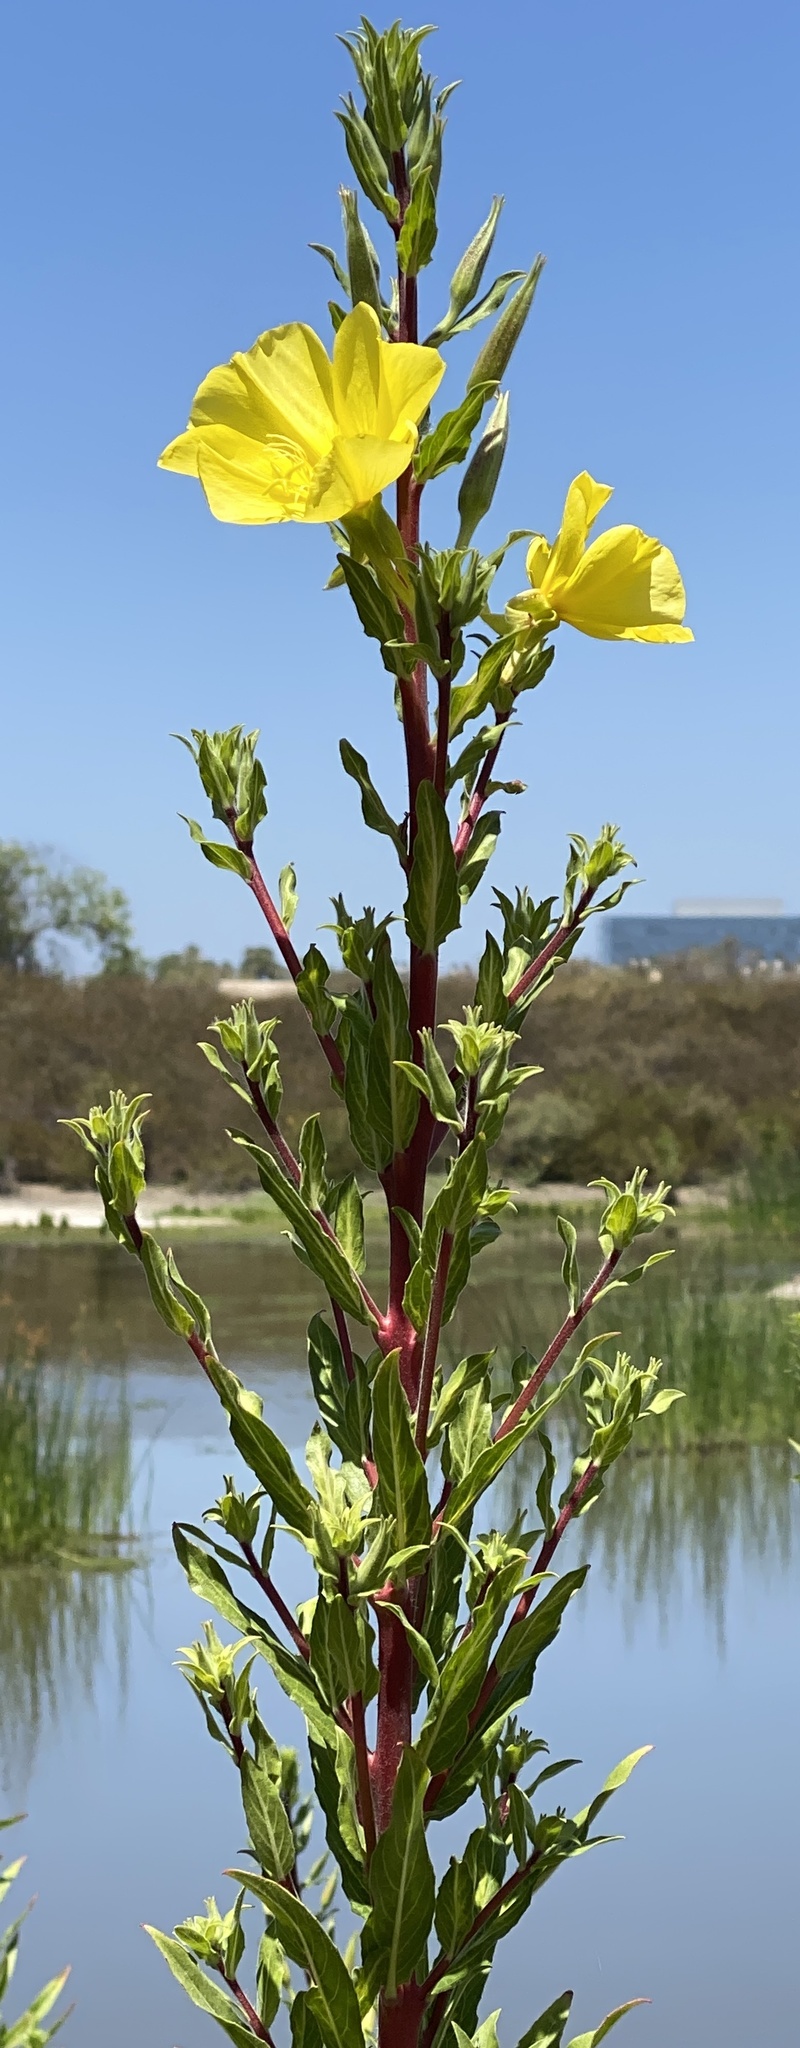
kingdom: Plantae
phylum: Tracheophyta
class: Magnoliopsida
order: Myrtales
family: Onagraceae
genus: Oenothera
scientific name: Oenothera elata
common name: Hooker's evening-primrose
